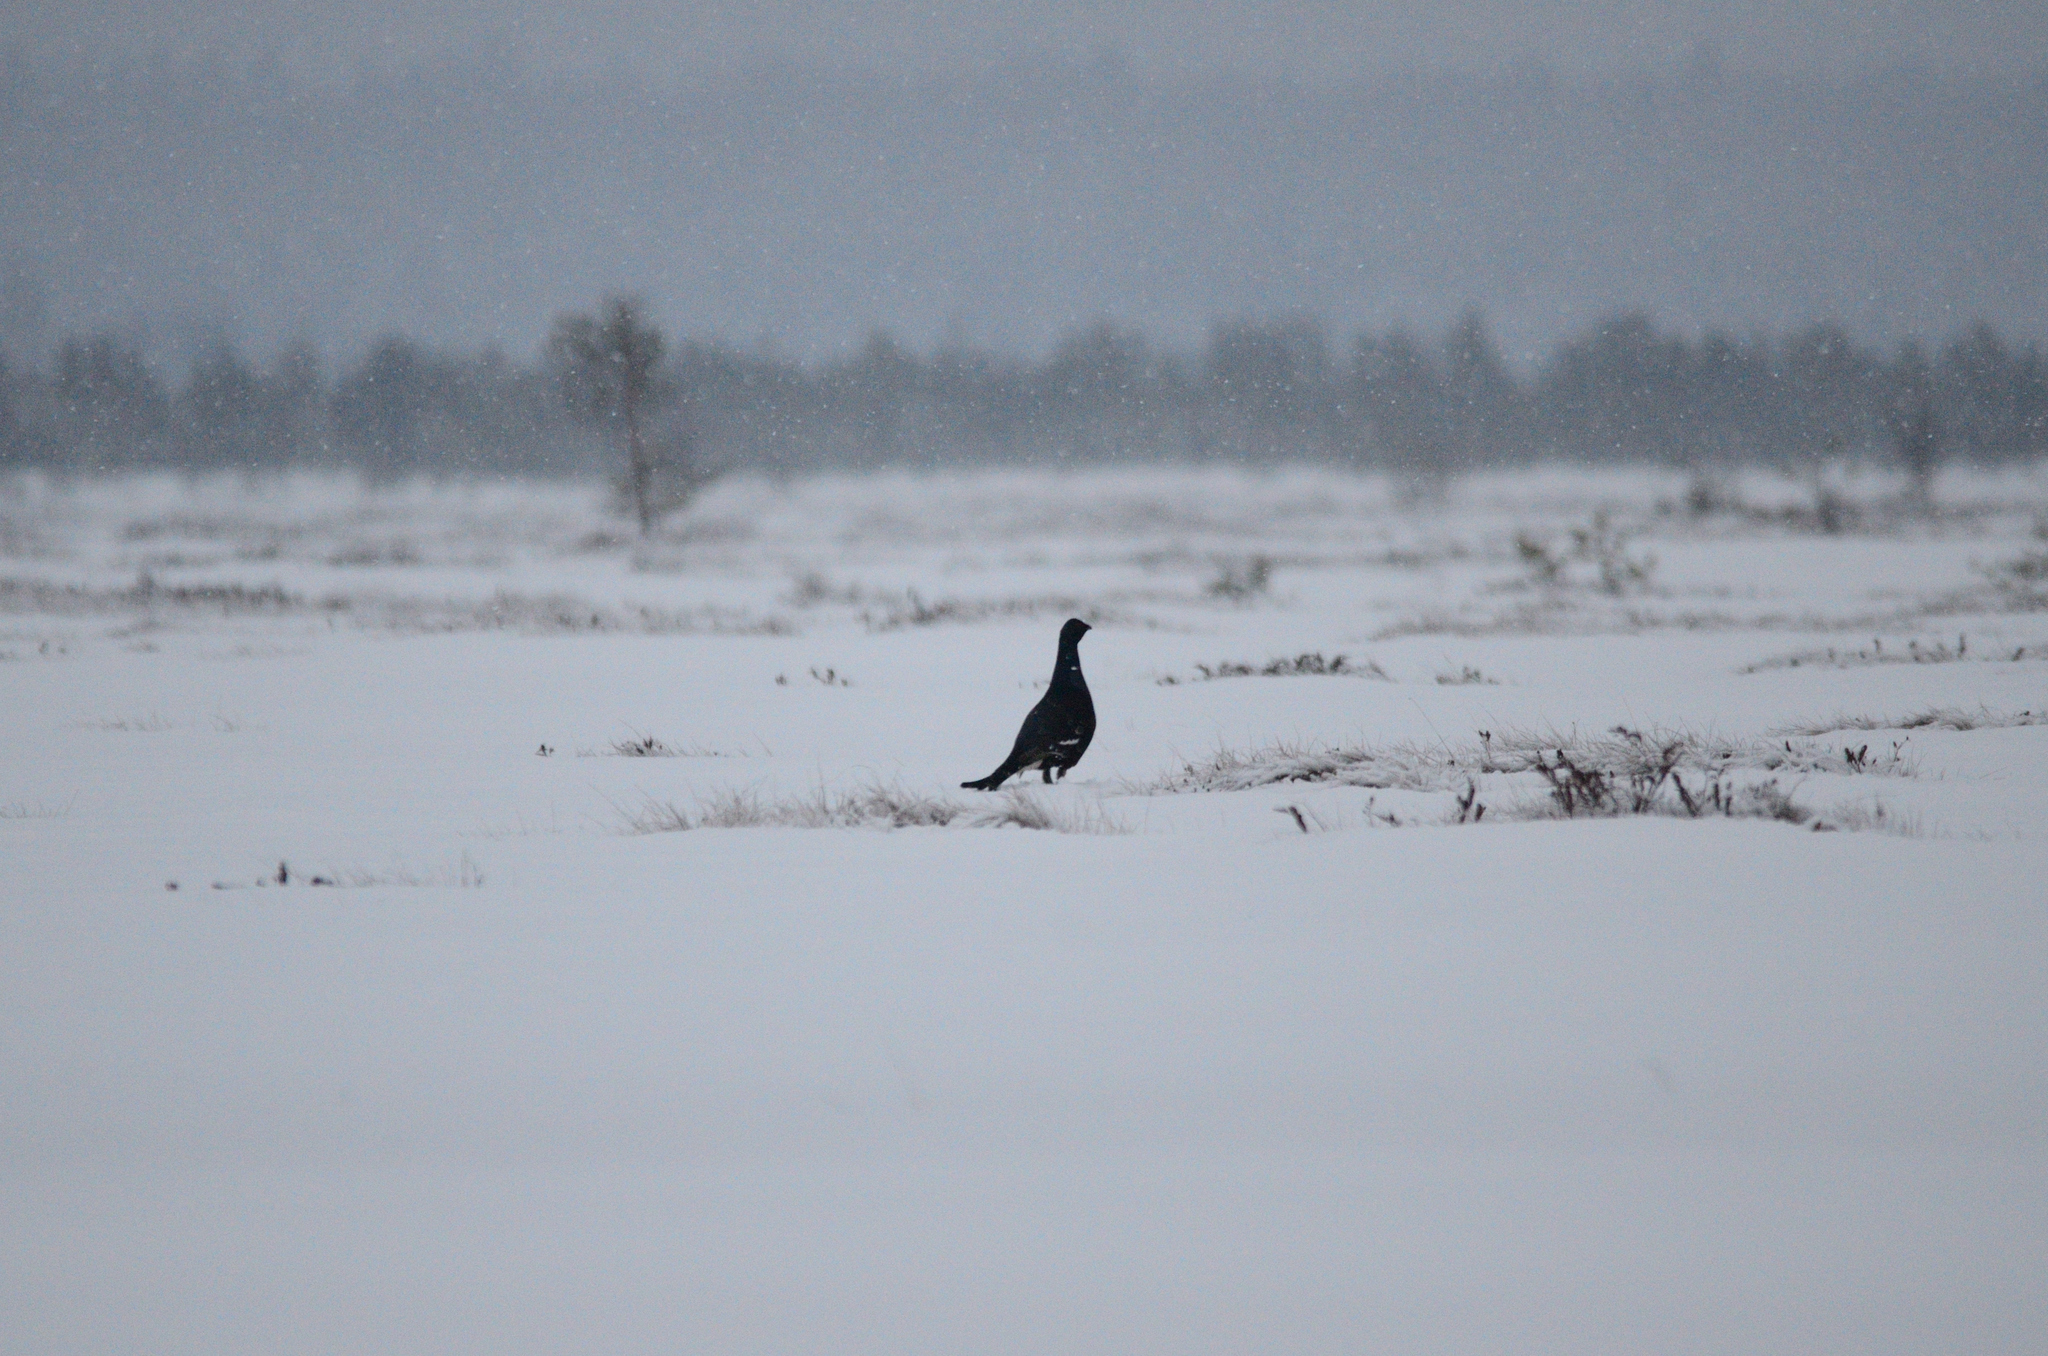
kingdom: Animalia
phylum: Chordata
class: Aves
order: Galliformes
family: Phasianidae
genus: Lyrurus
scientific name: Lyrurus tetrix
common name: Black grouse
